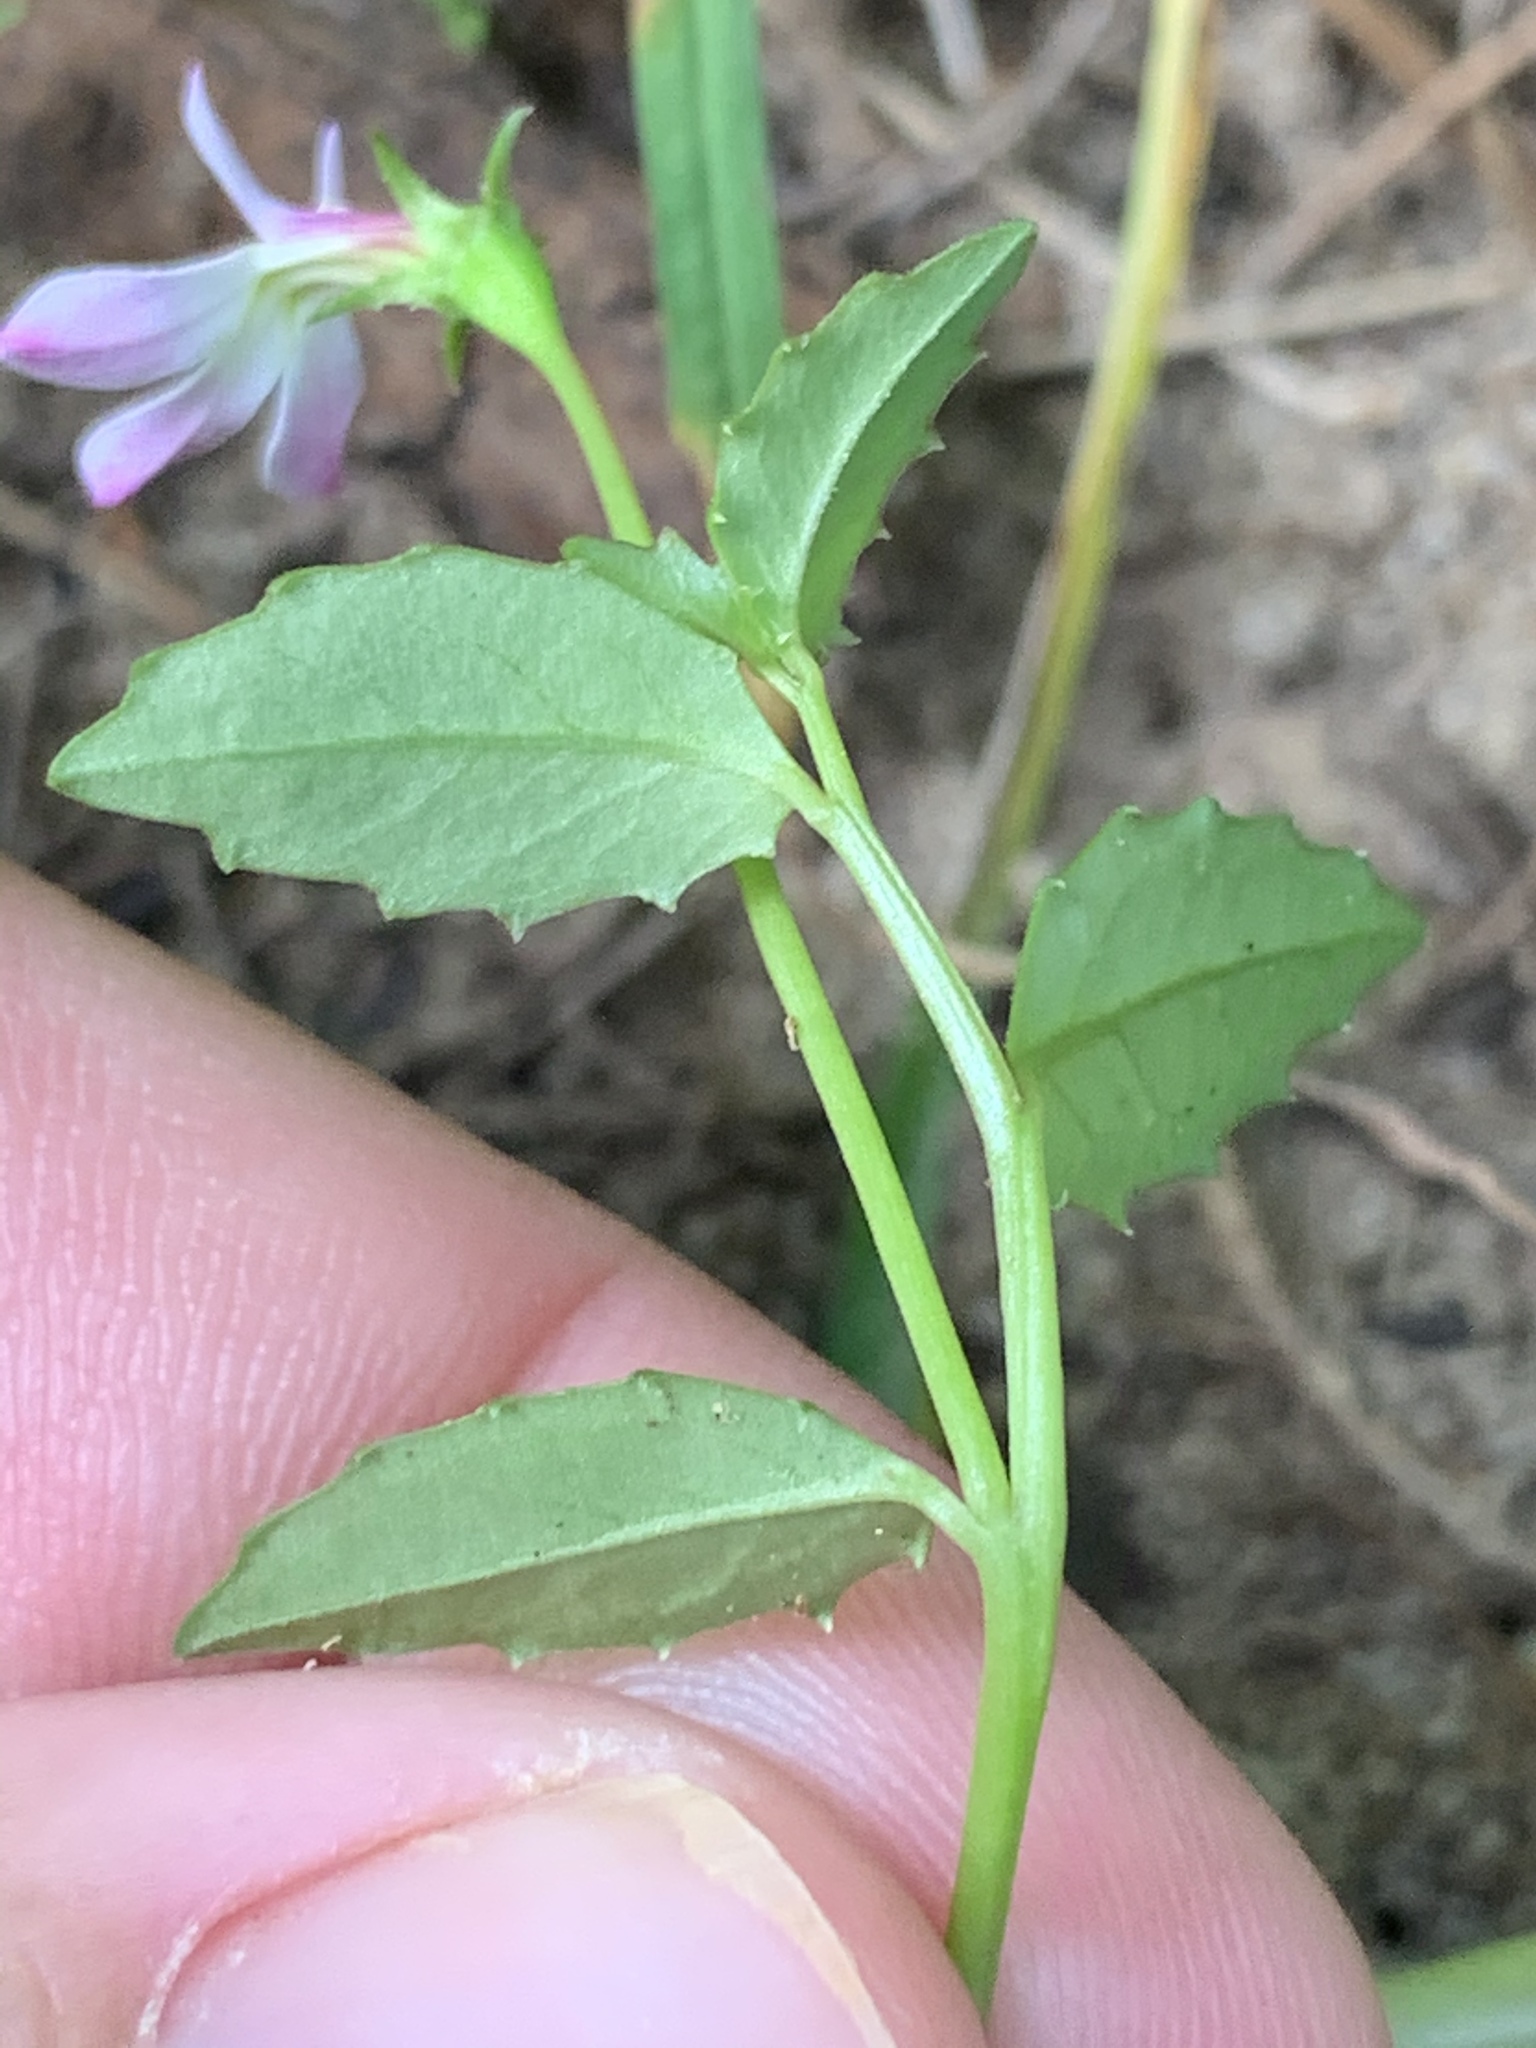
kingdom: Plantae
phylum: Tracheophyta
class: Magnoliopsida
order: Asterales
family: Campanulaceae
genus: Lobelia
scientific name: Lobelia purpurascens
